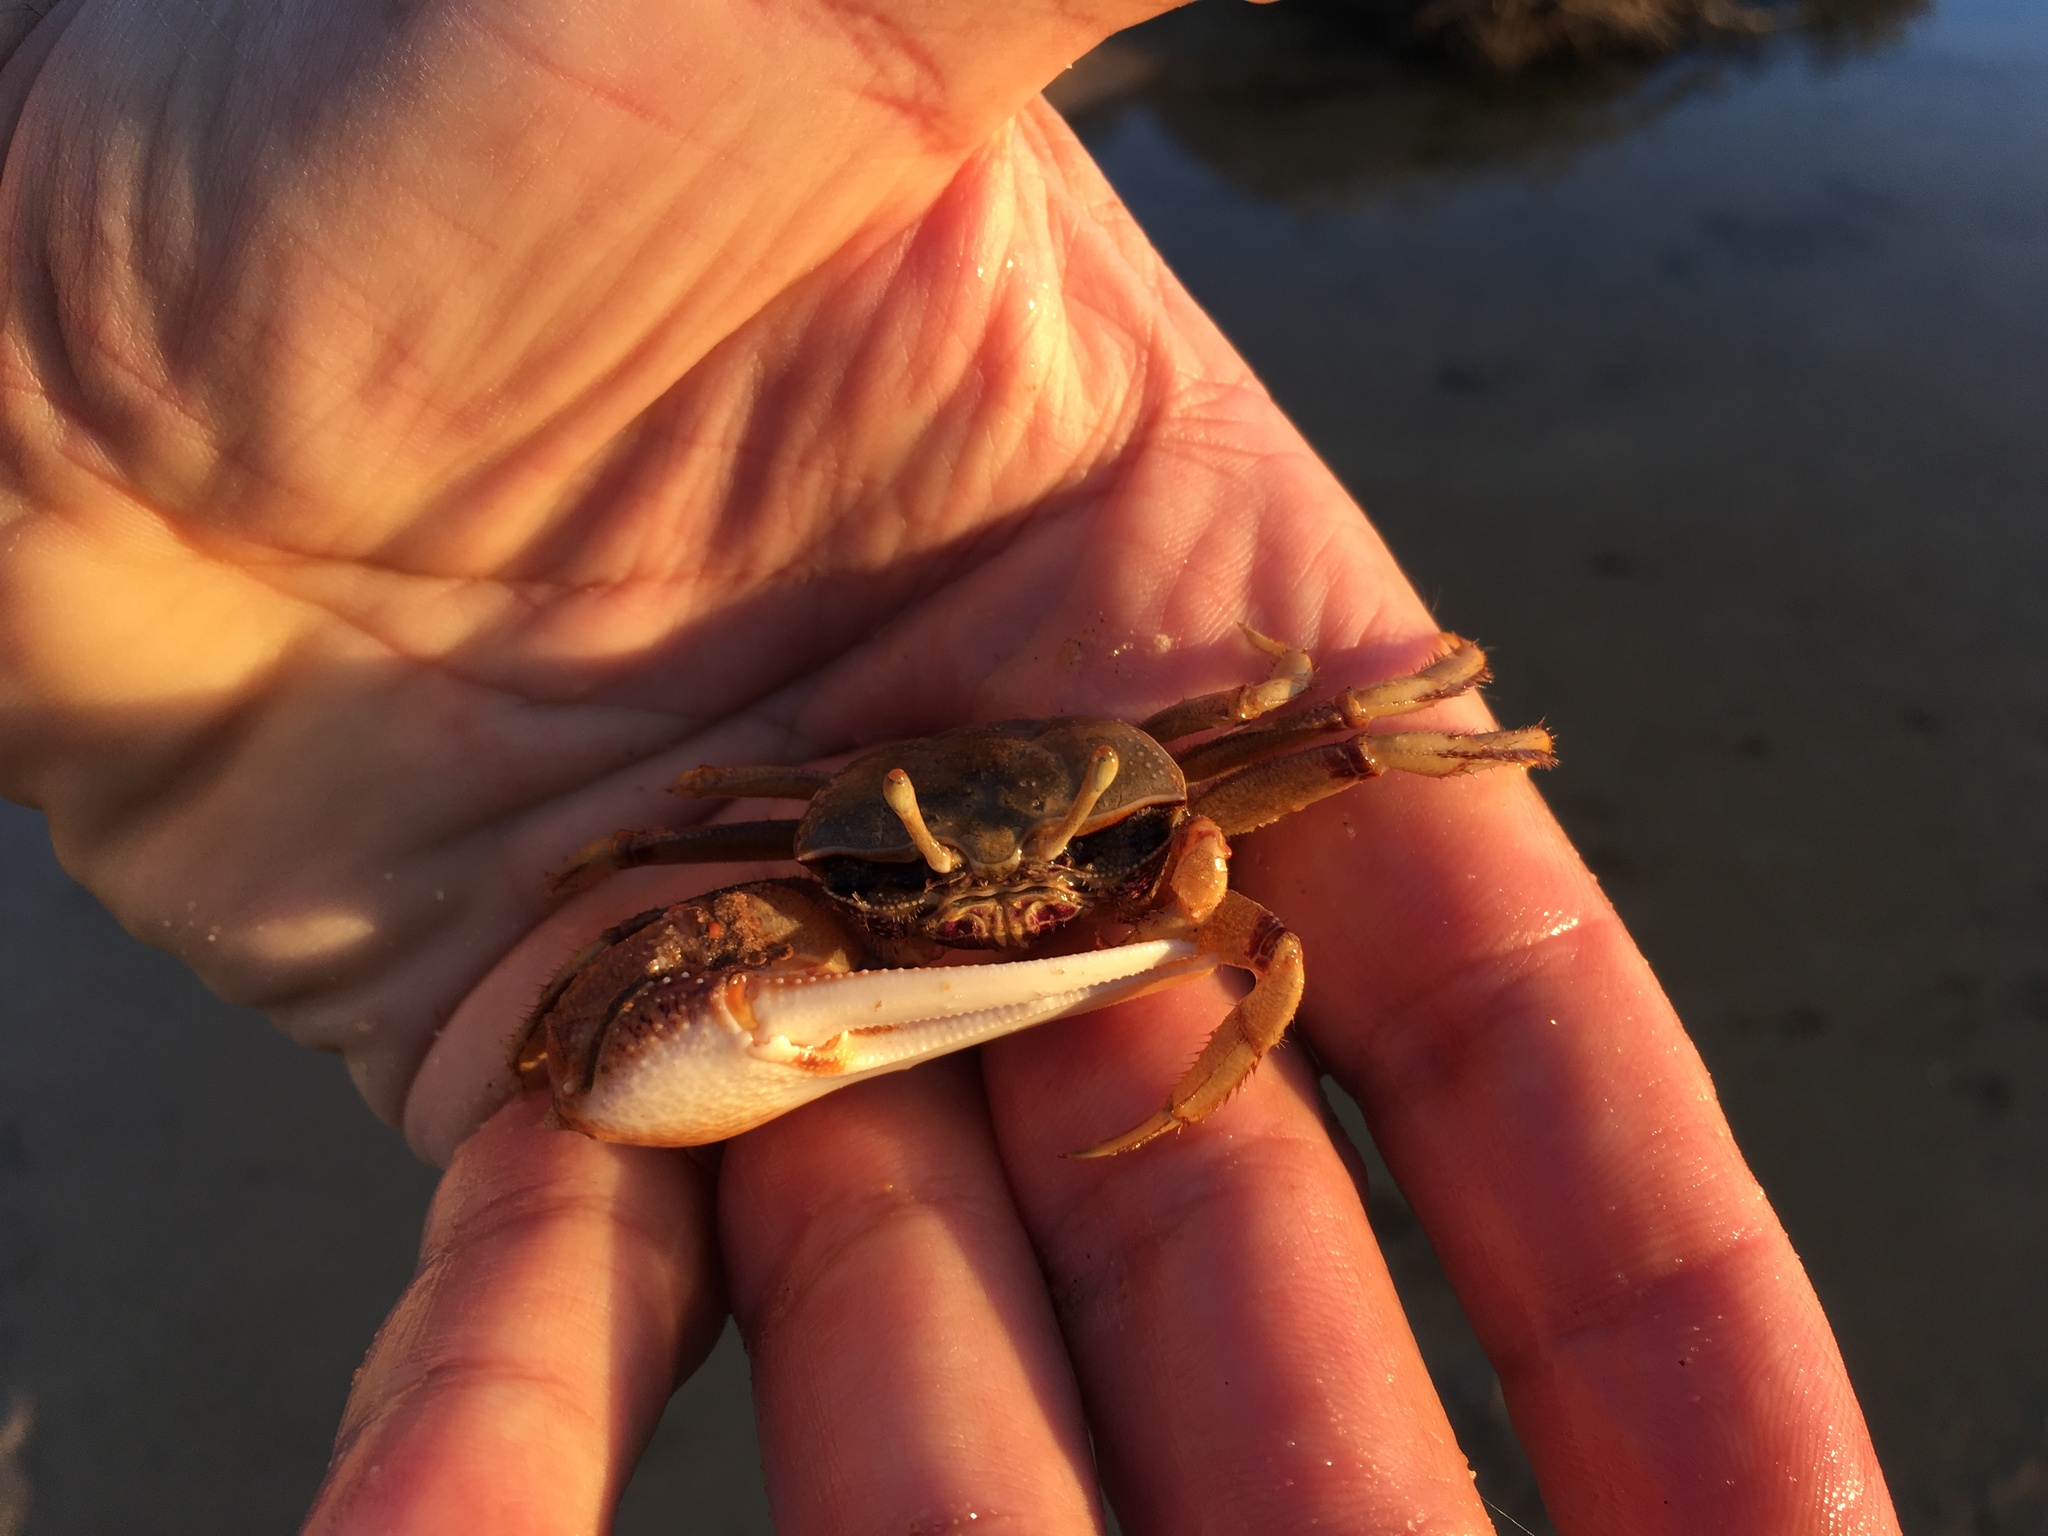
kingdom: Animalia
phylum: Arthropoda
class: Malacostraca
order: Decapoda
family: Ocypodidae
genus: Afruca
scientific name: Afruca tangeri
